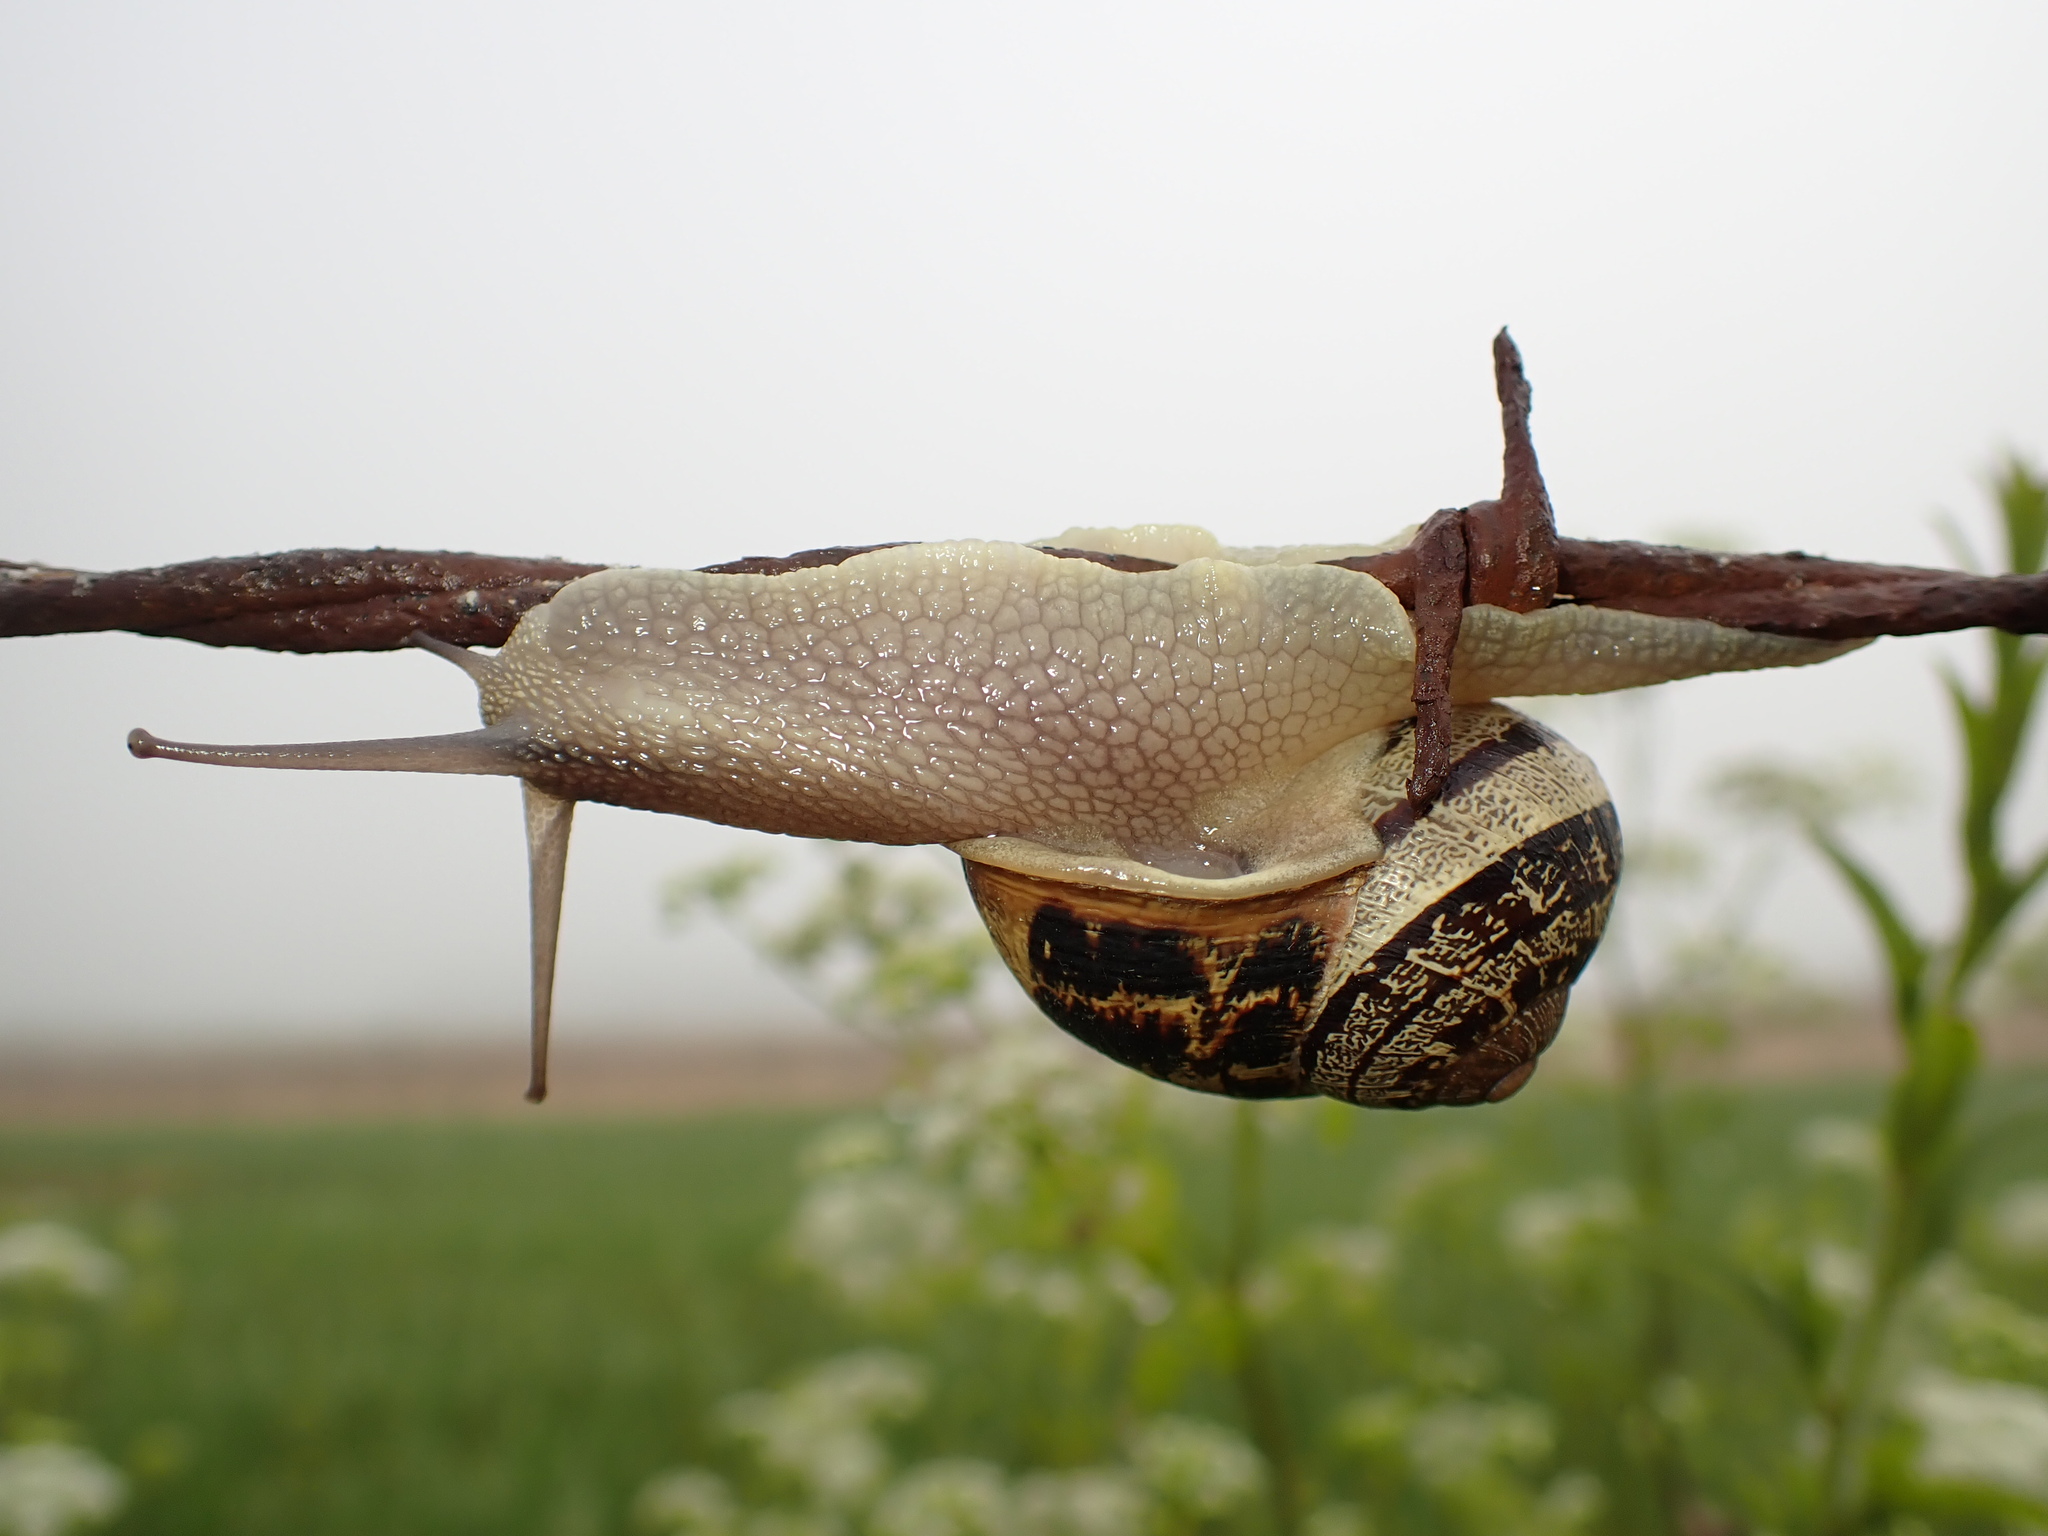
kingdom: Animalia
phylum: Mollusca
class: Gastropoda
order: Stylommatophora
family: Helicidae
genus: Cornu
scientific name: Cornu aspersum
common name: Brown garden snail
